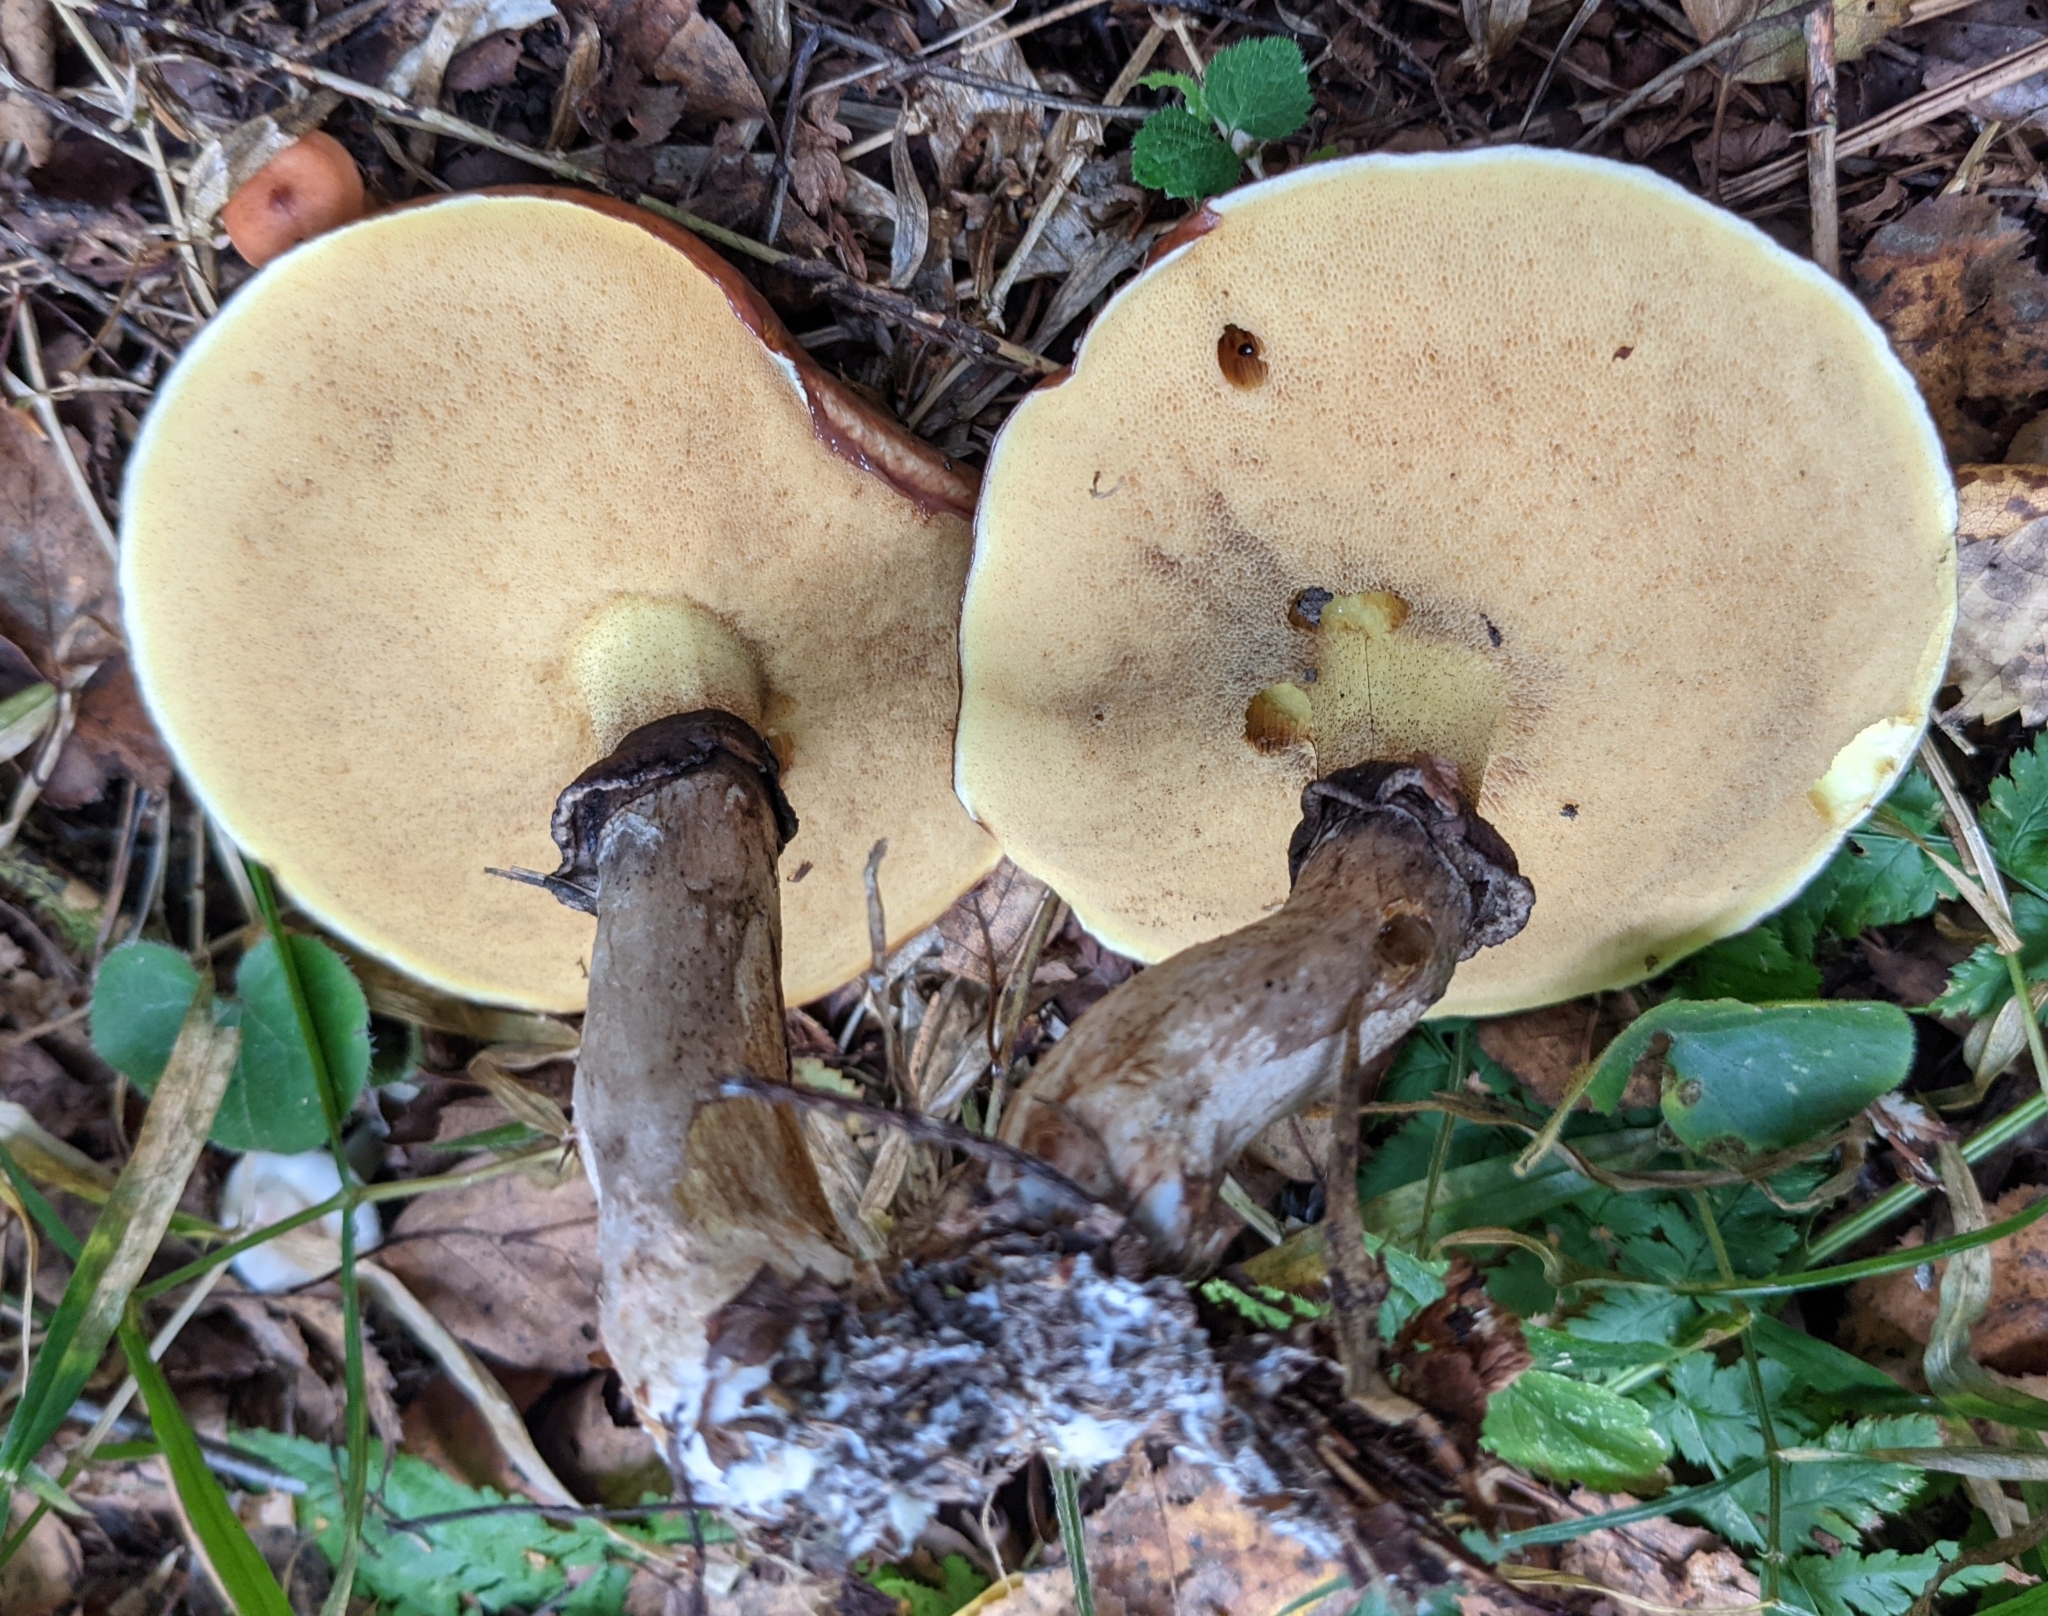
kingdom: Fungi
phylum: Basidiomycota
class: Agaricomycetes
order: Boletales
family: Suillaceae
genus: Suillus
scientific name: Suillus luteus
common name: Slippery jack
